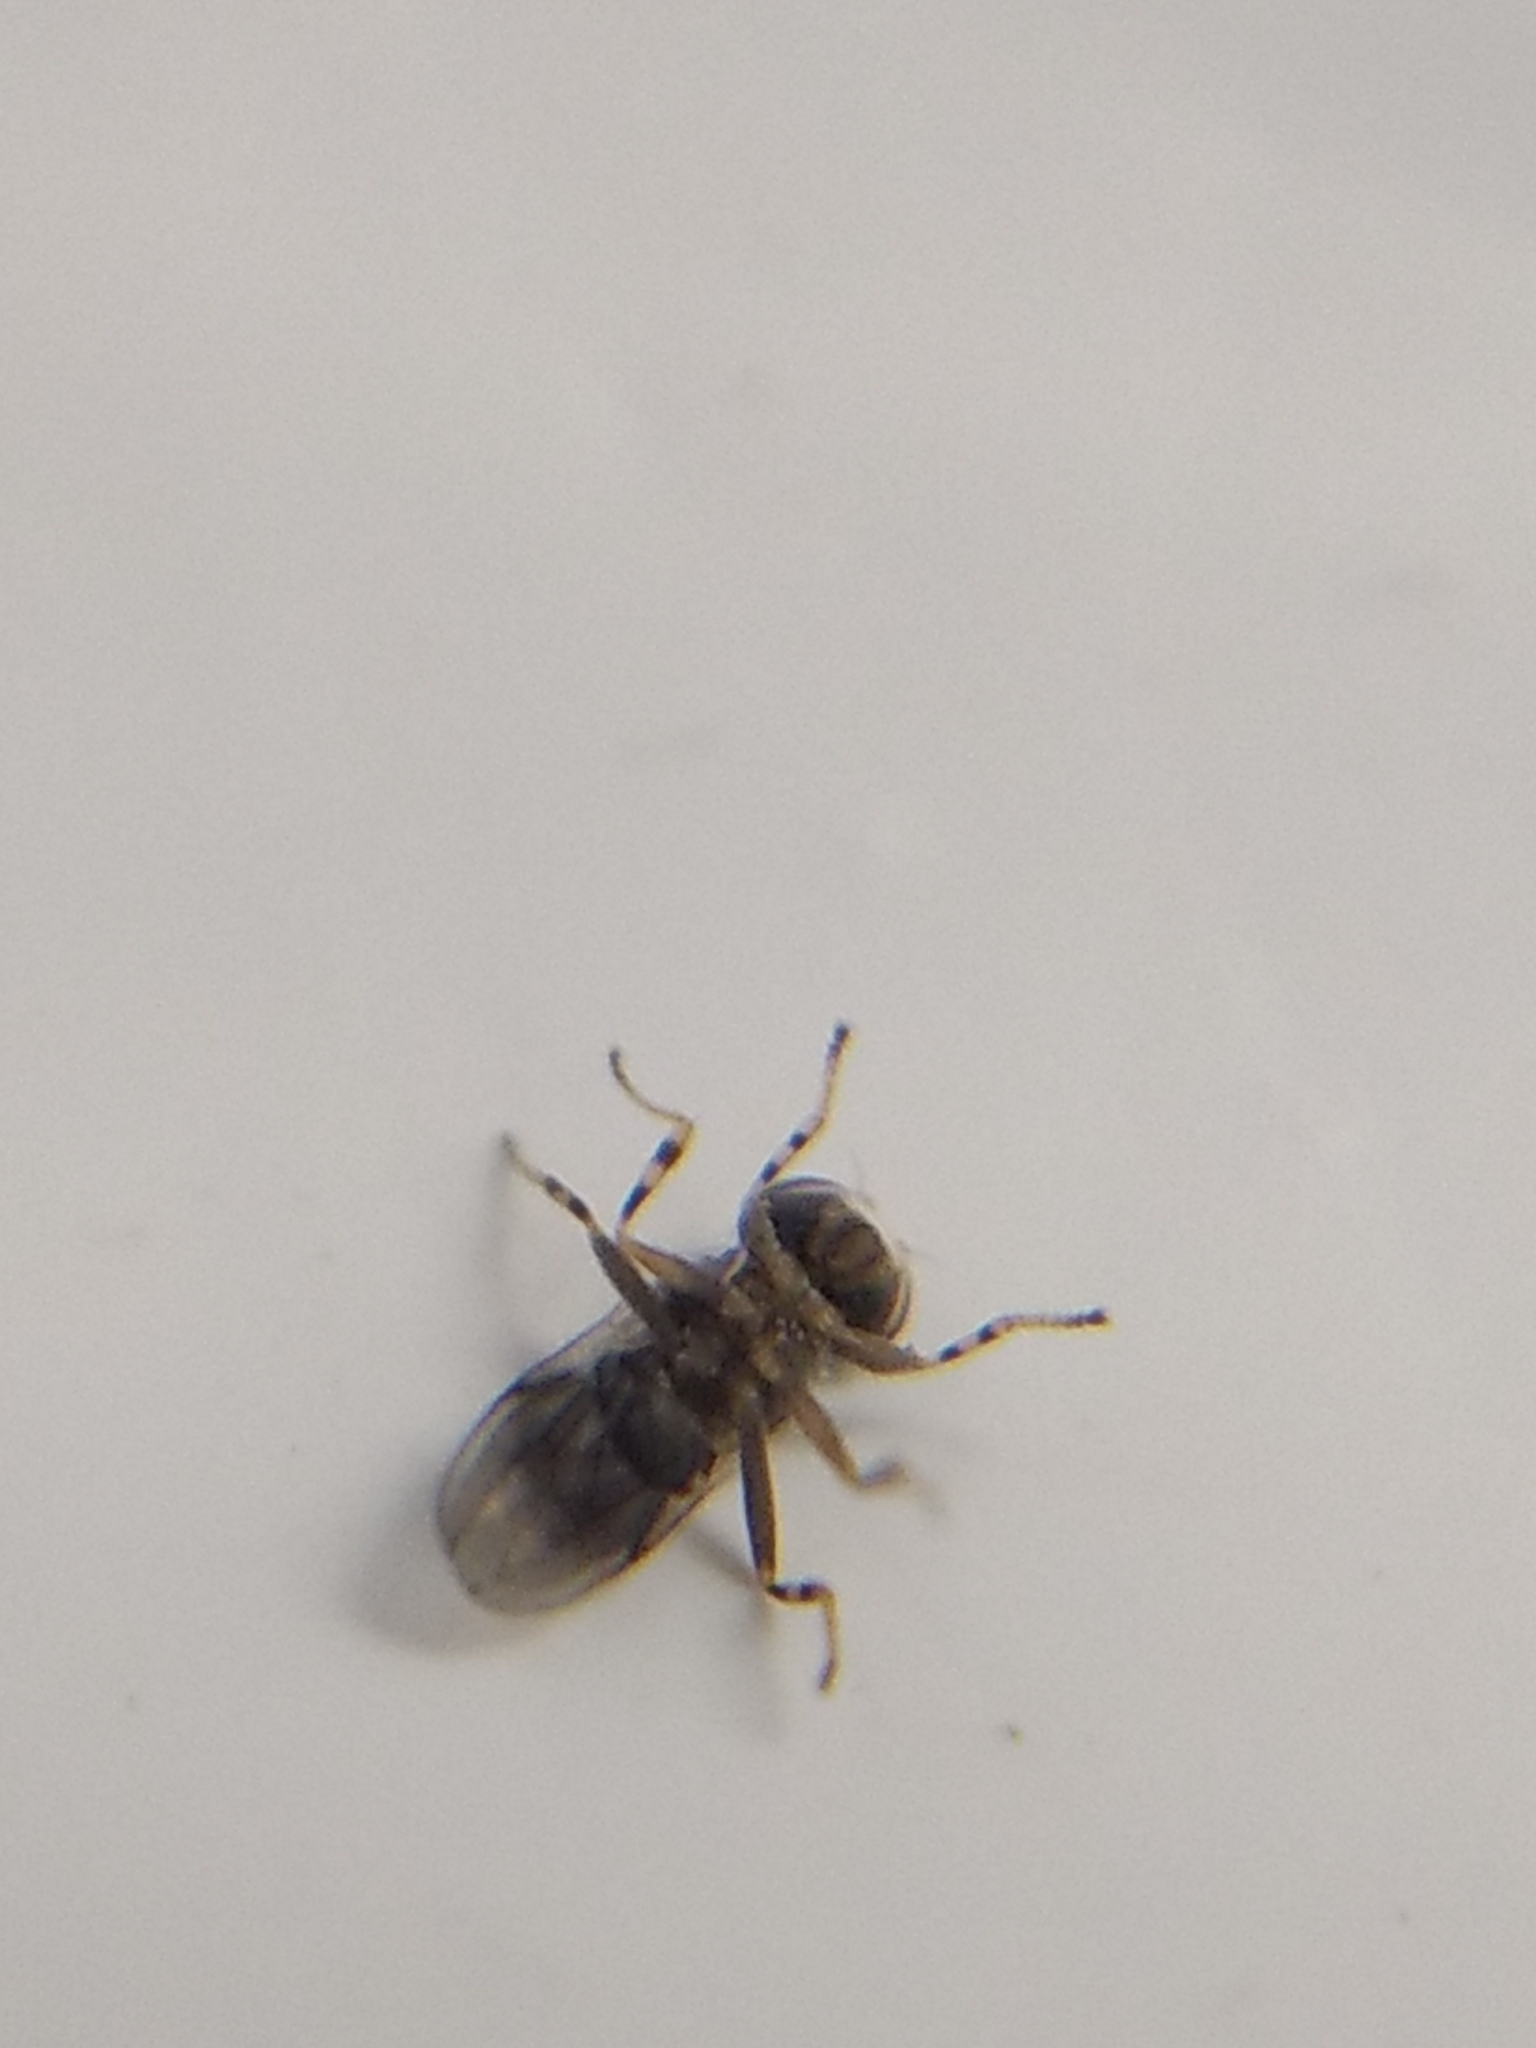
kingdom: Animalia
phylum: Arthropoda
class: Insecta
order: Diptera
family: Periscelididae
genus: Periscelis
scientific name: Periscelis occidentalis
